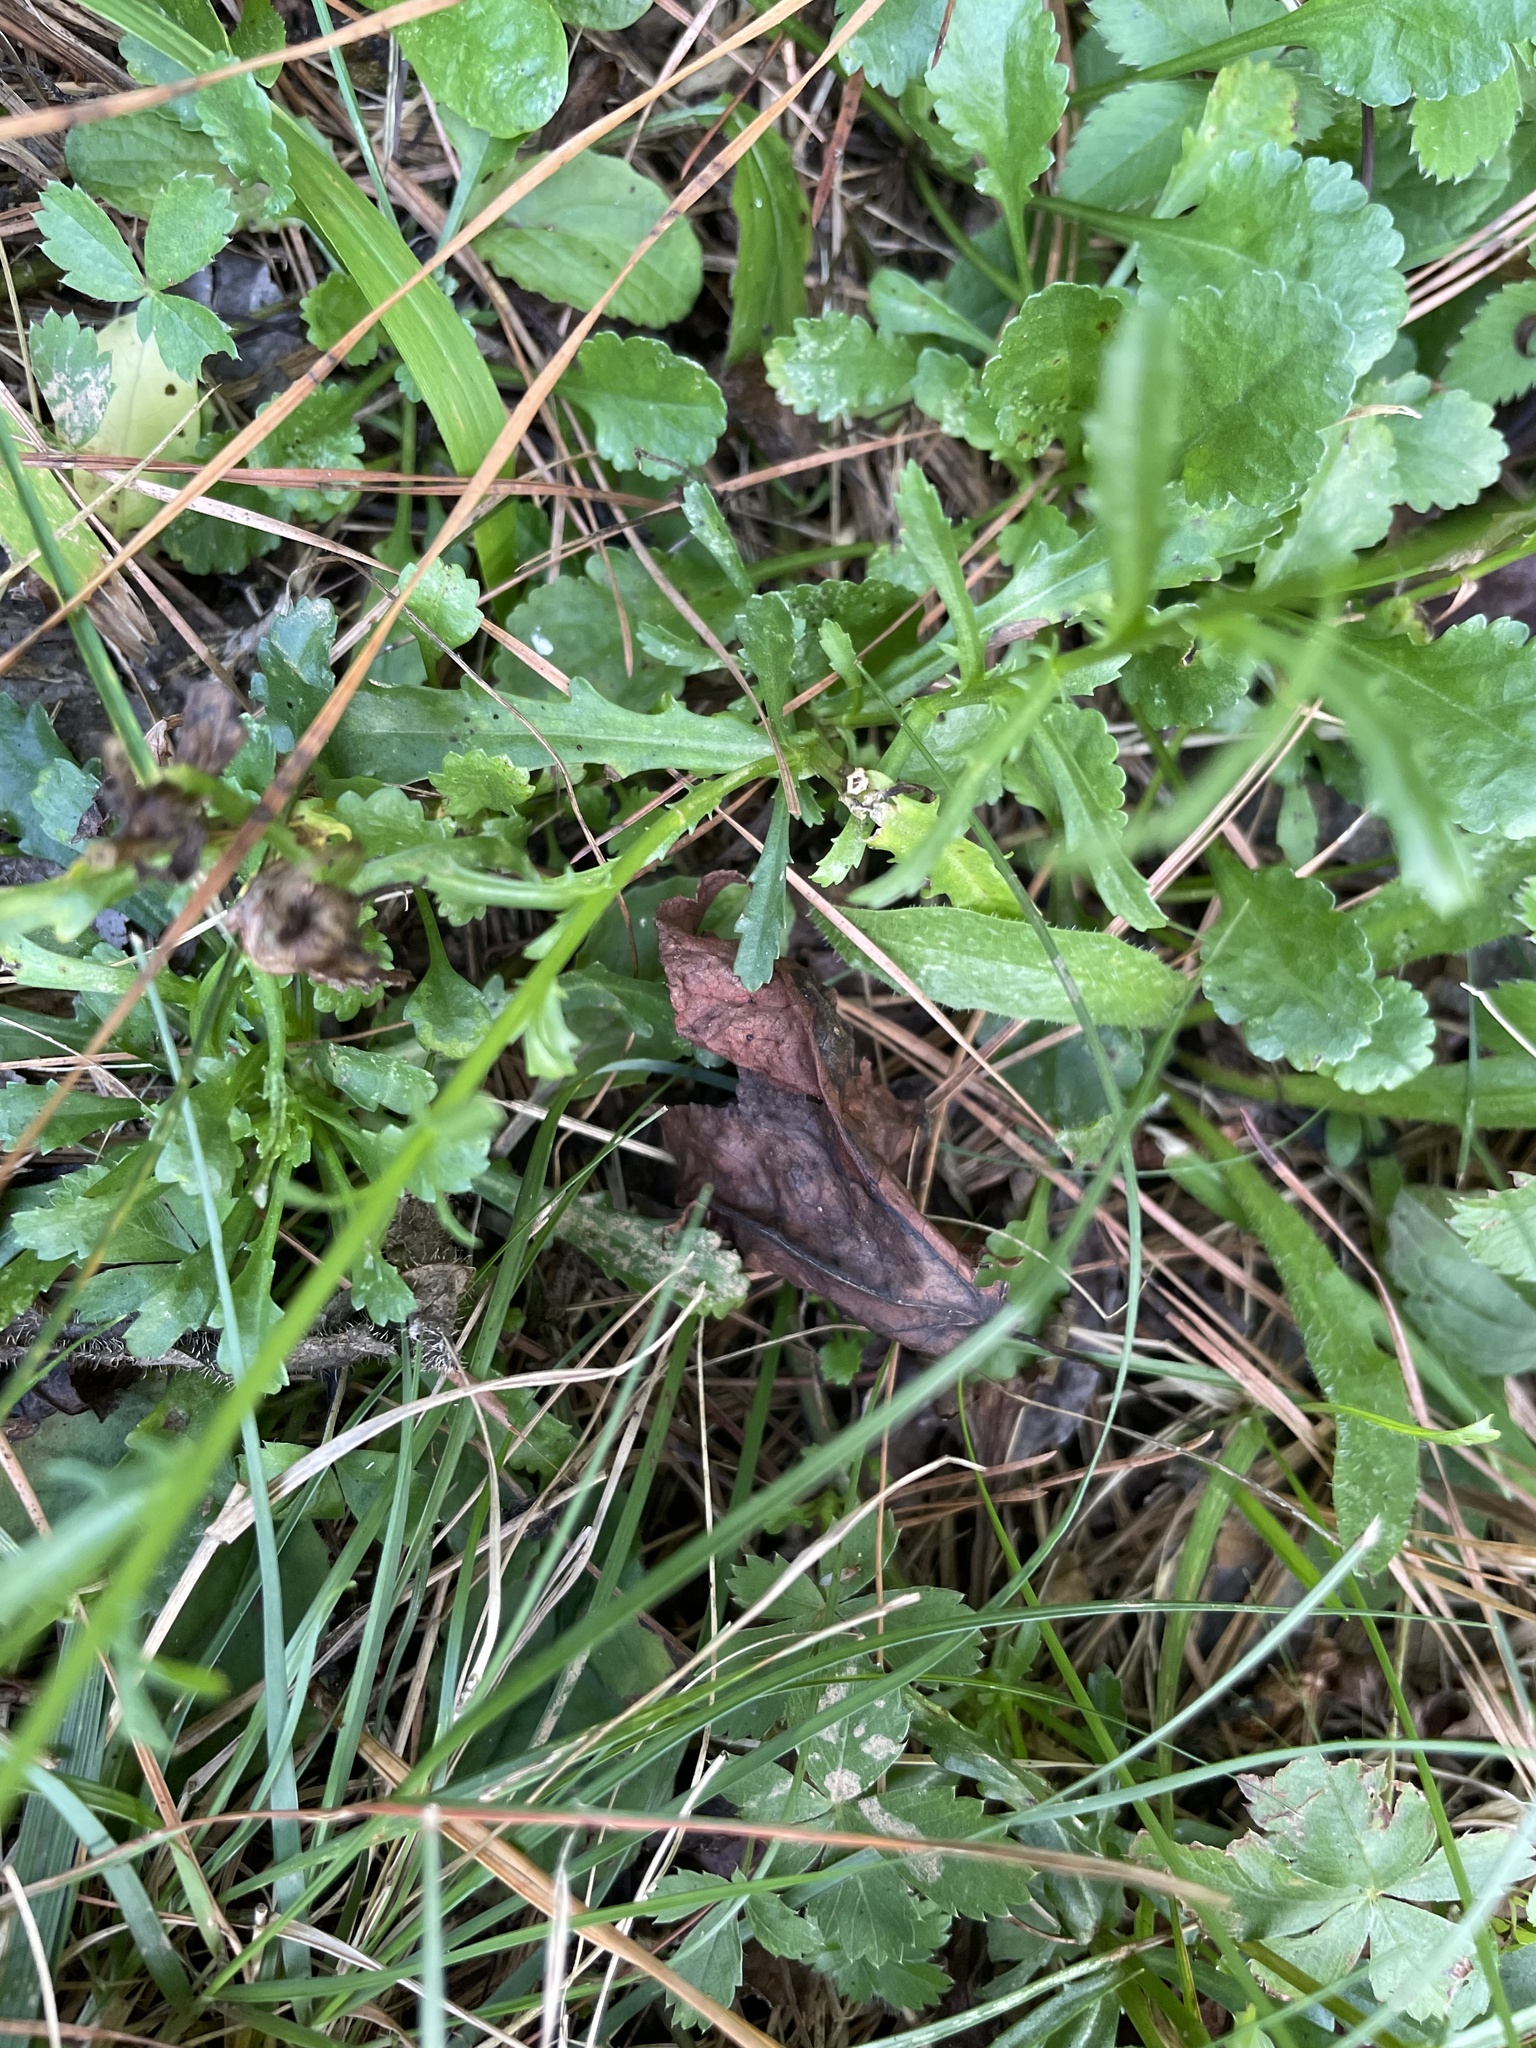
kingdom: Plantae
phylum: Tracheophyta
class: Magnoliopsida
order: Asterales
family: Asteraceae
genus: Leucanthemum
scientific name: Leucanthemum vulgare
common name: Oxeye daisy
